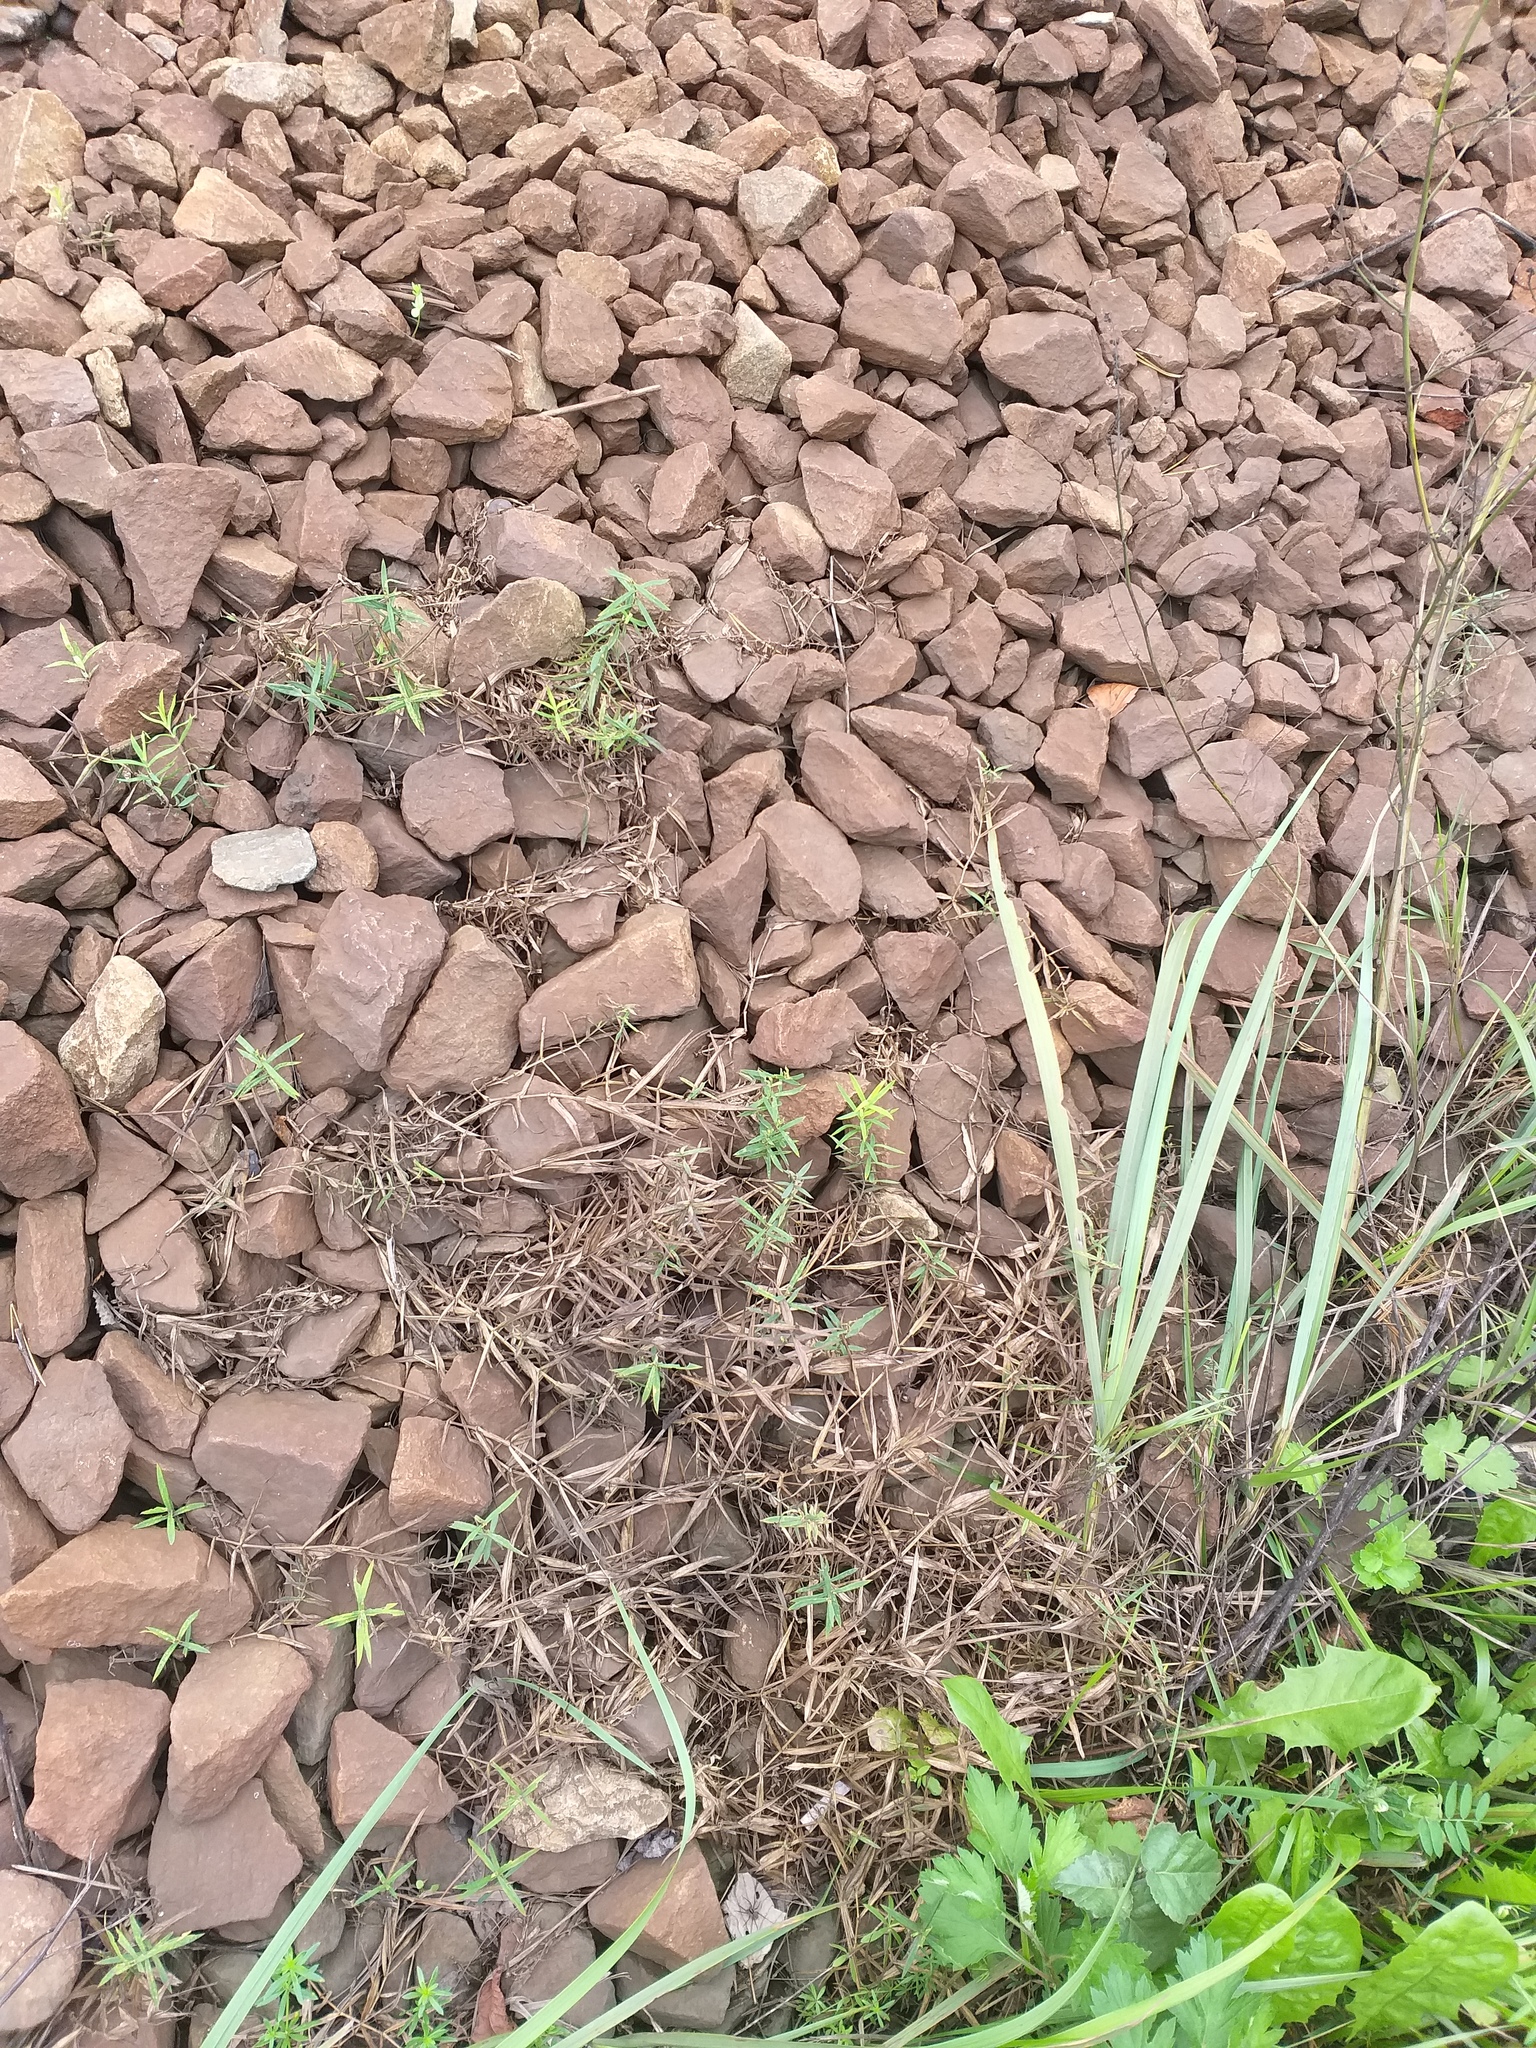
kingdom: Plantae
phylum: Tracheophyta
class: Magnoliopsida
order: Caryophyllales
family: Caryophyllaceae
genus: Rabelera
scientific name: Rabelera holostea
